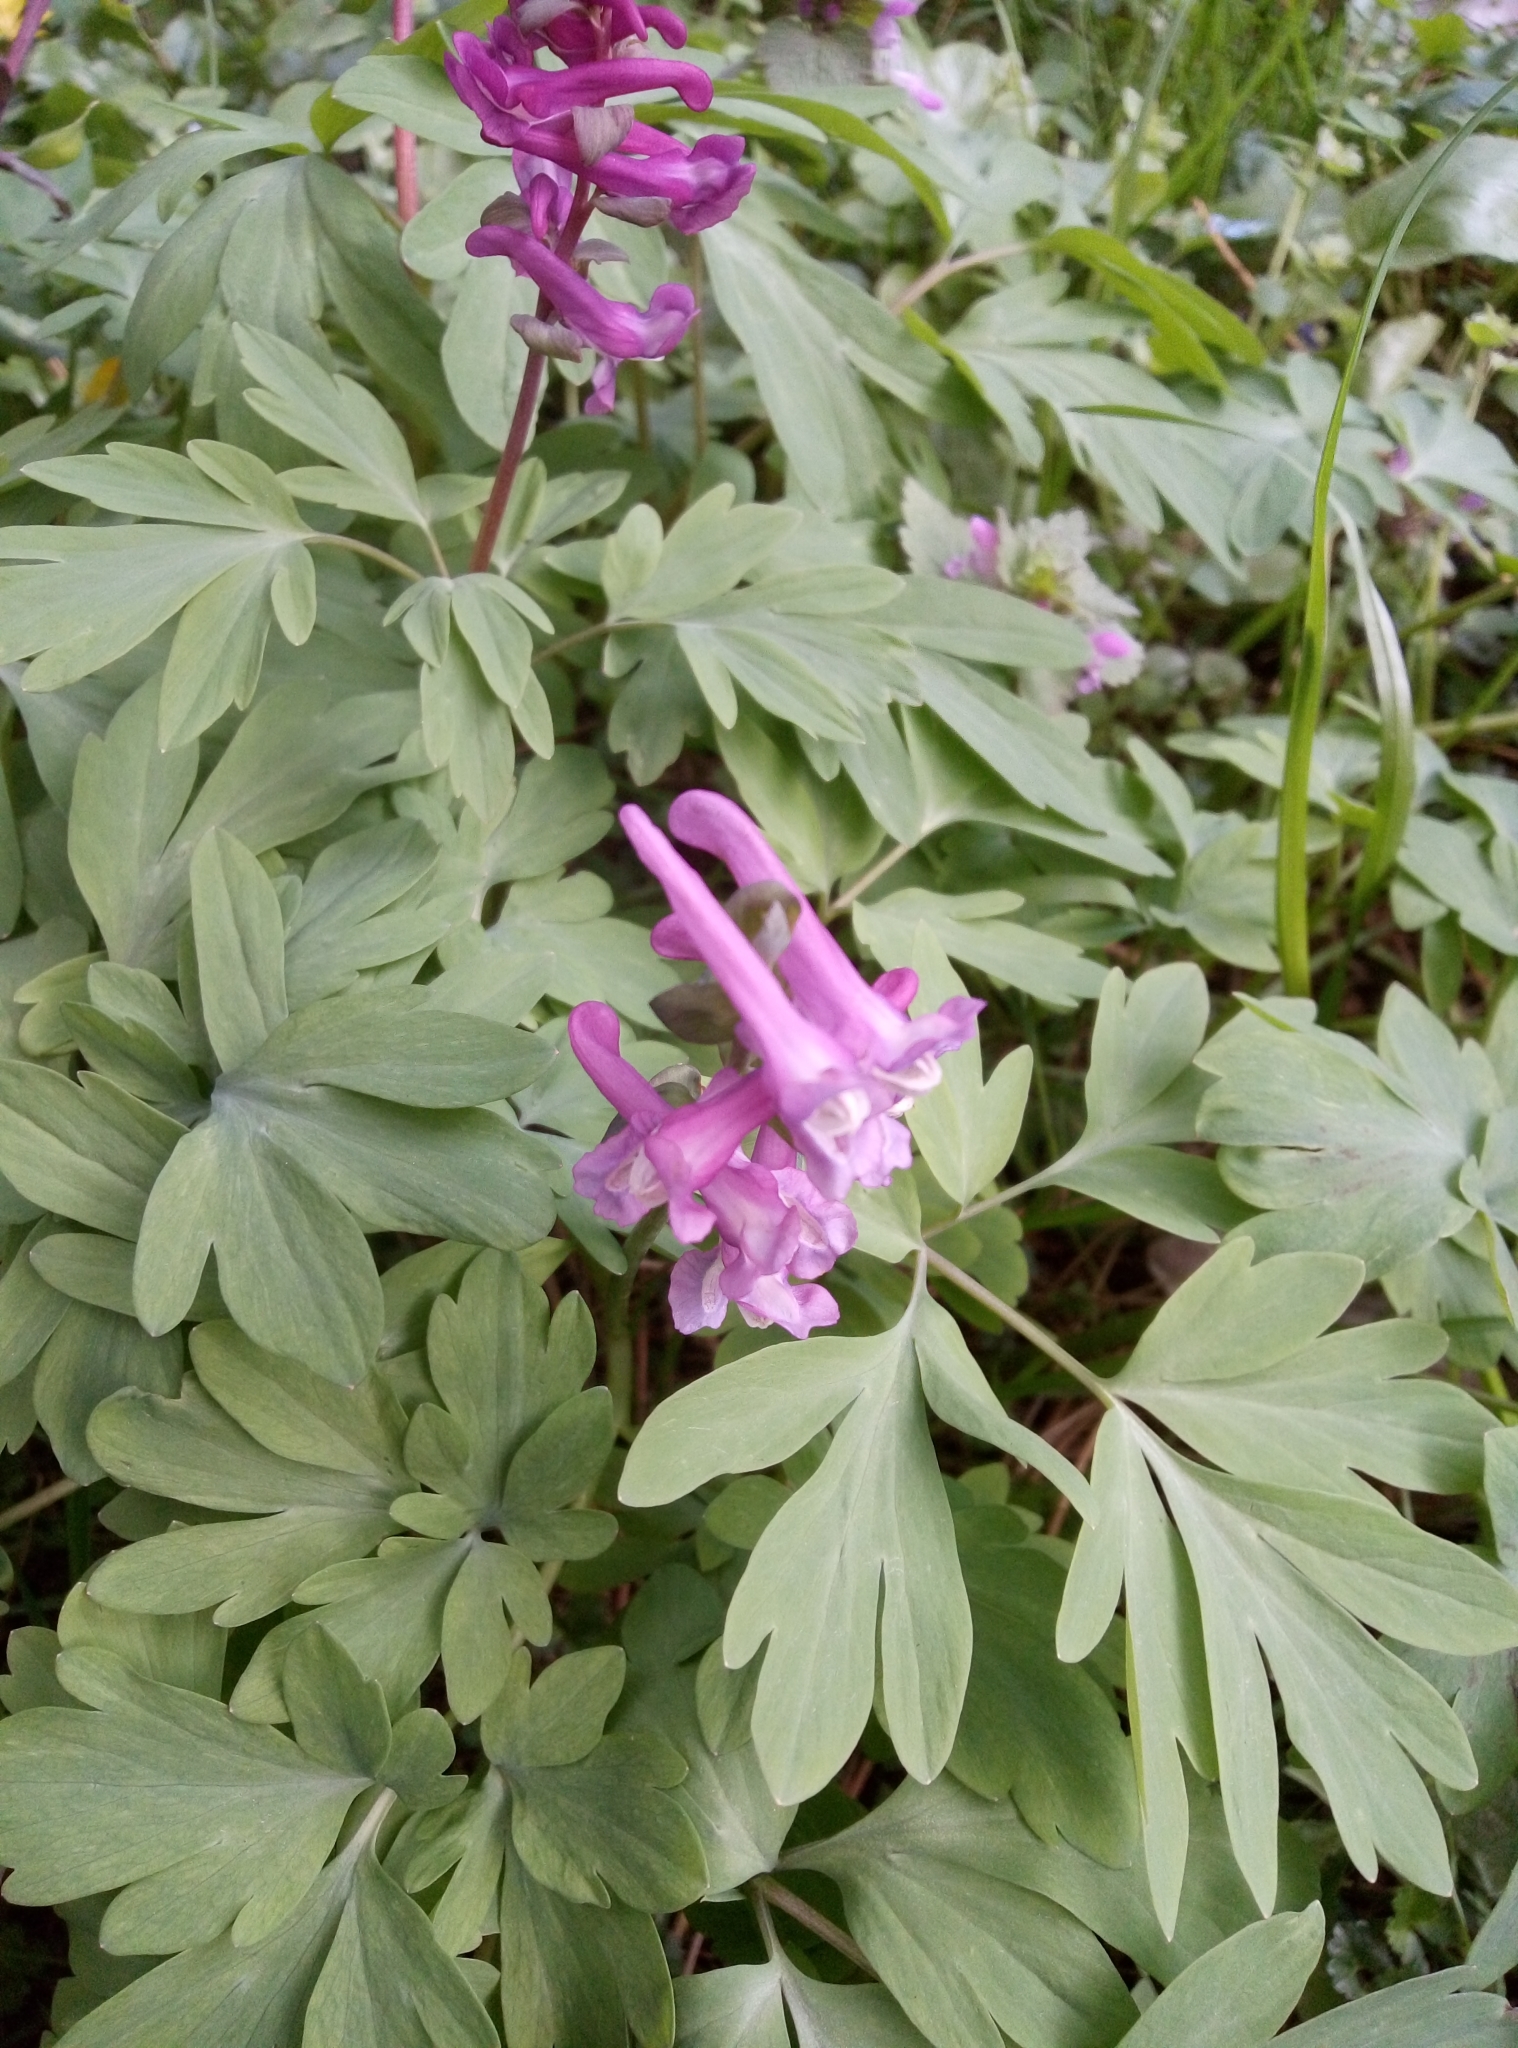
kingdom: Plantae
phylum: Tracheophyta
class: Magnoliopsida
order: Ranunculales
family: Papaveraceae
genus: Corydalis
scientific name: Corydalis cava
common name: Hollowroot
